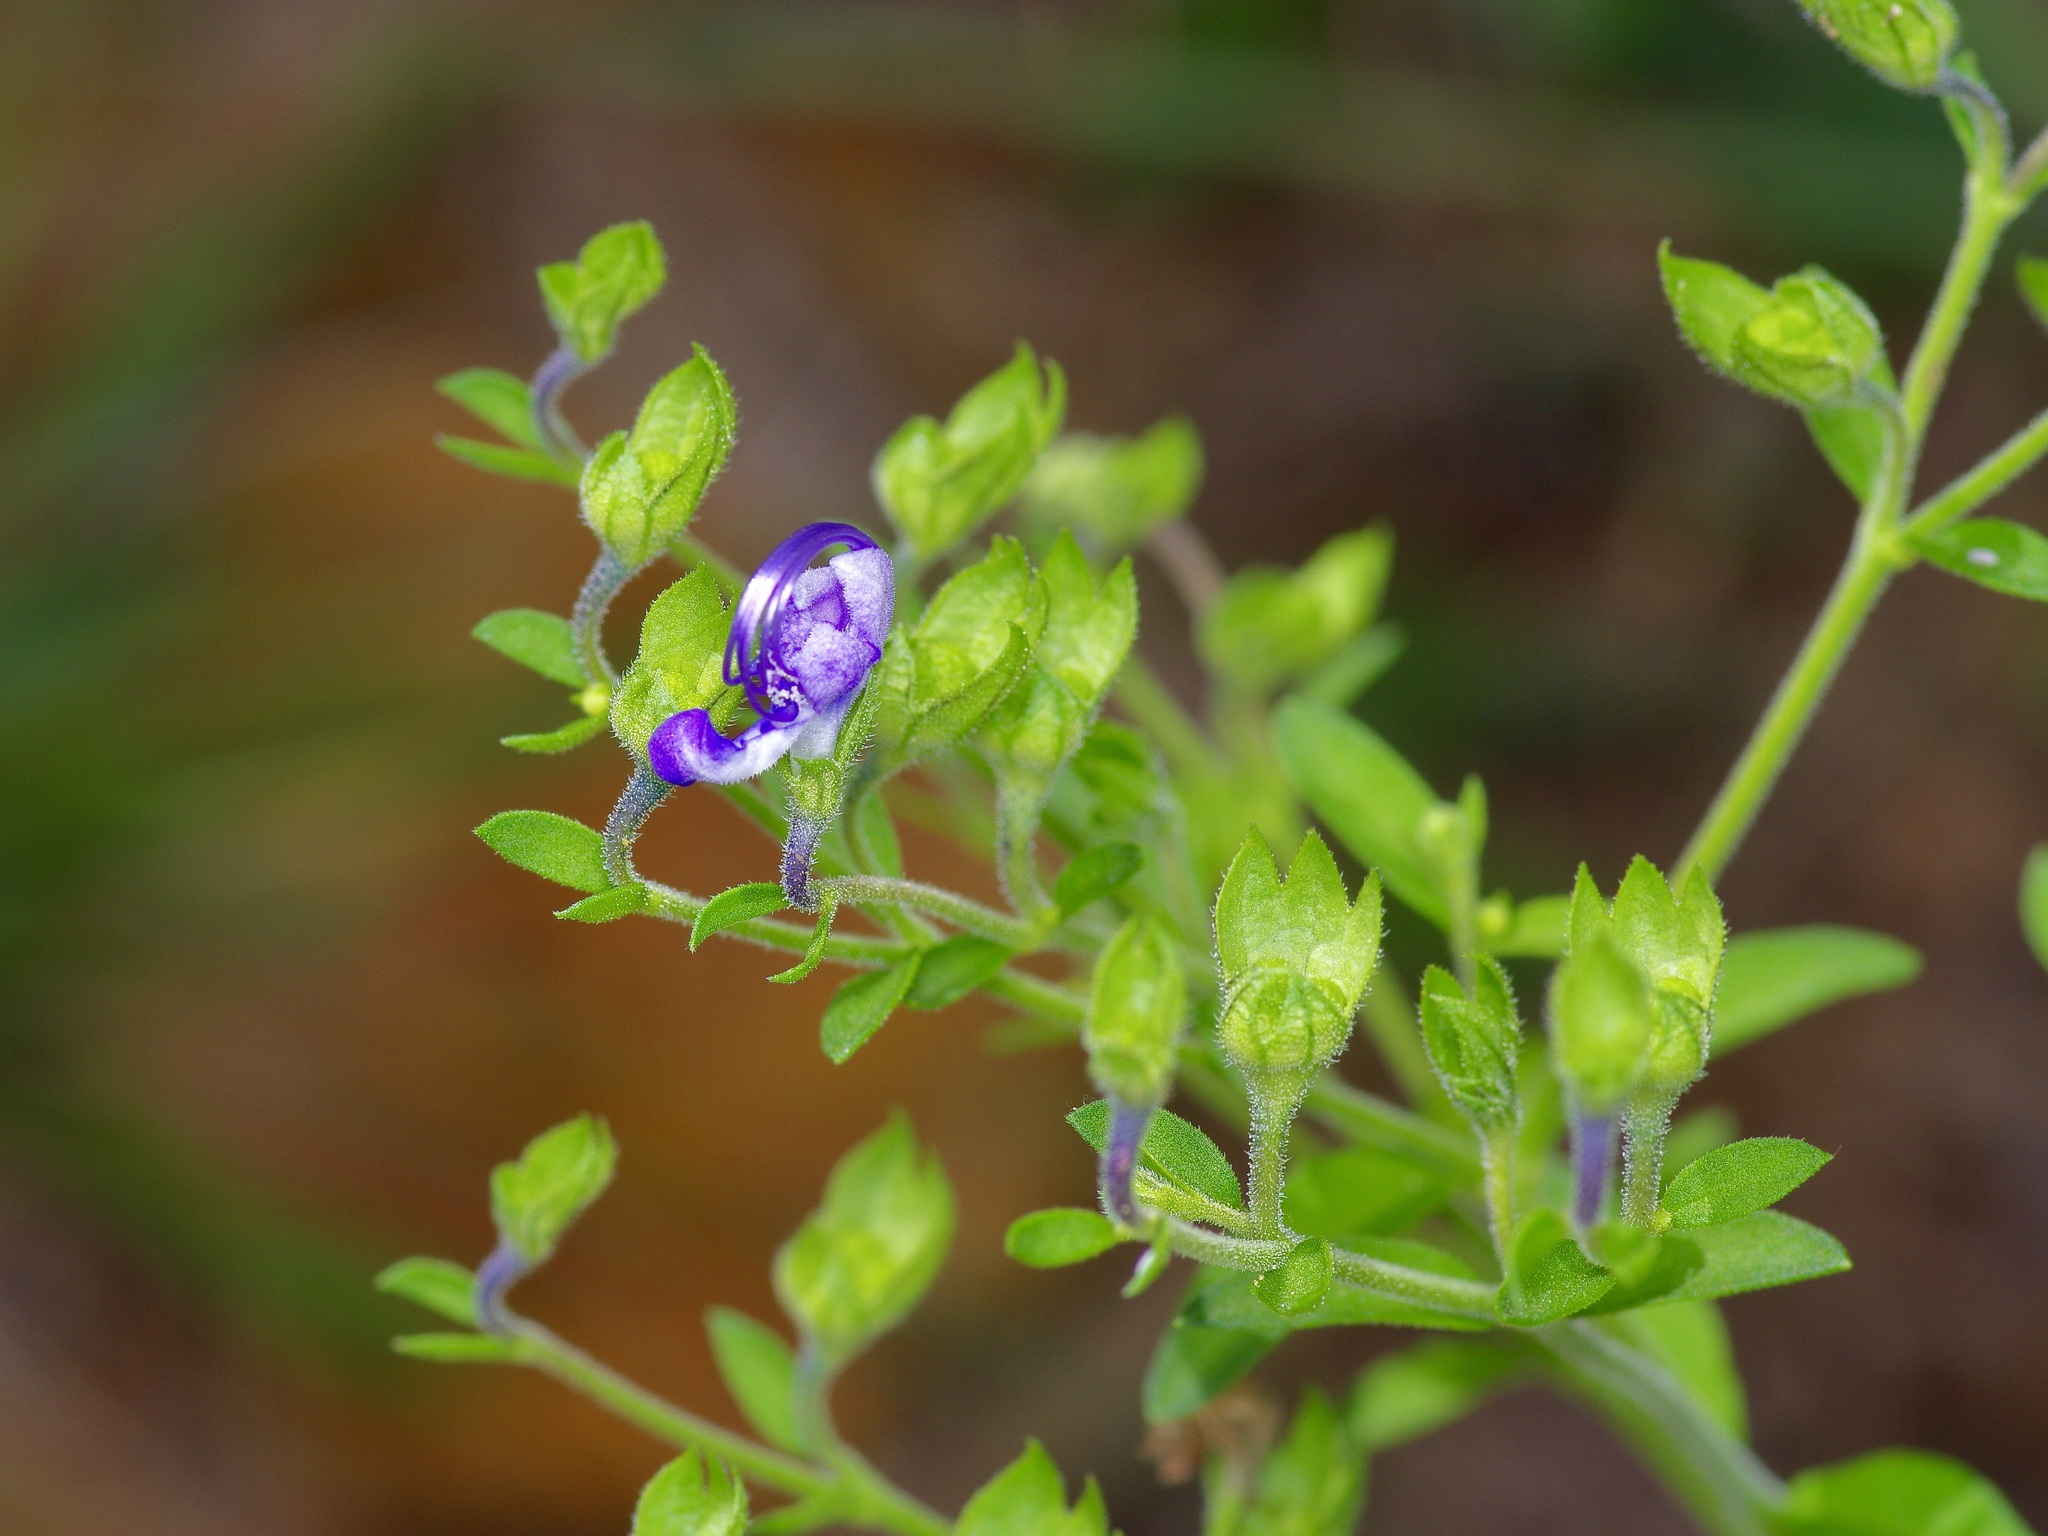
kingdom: Plantae
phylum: Tracheophyta
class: Magnoliopsida
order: Lamiales
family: Lamiaceae
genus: Trichostema
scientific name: Trichostema dichotomum
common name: Bastard pennyroyal
